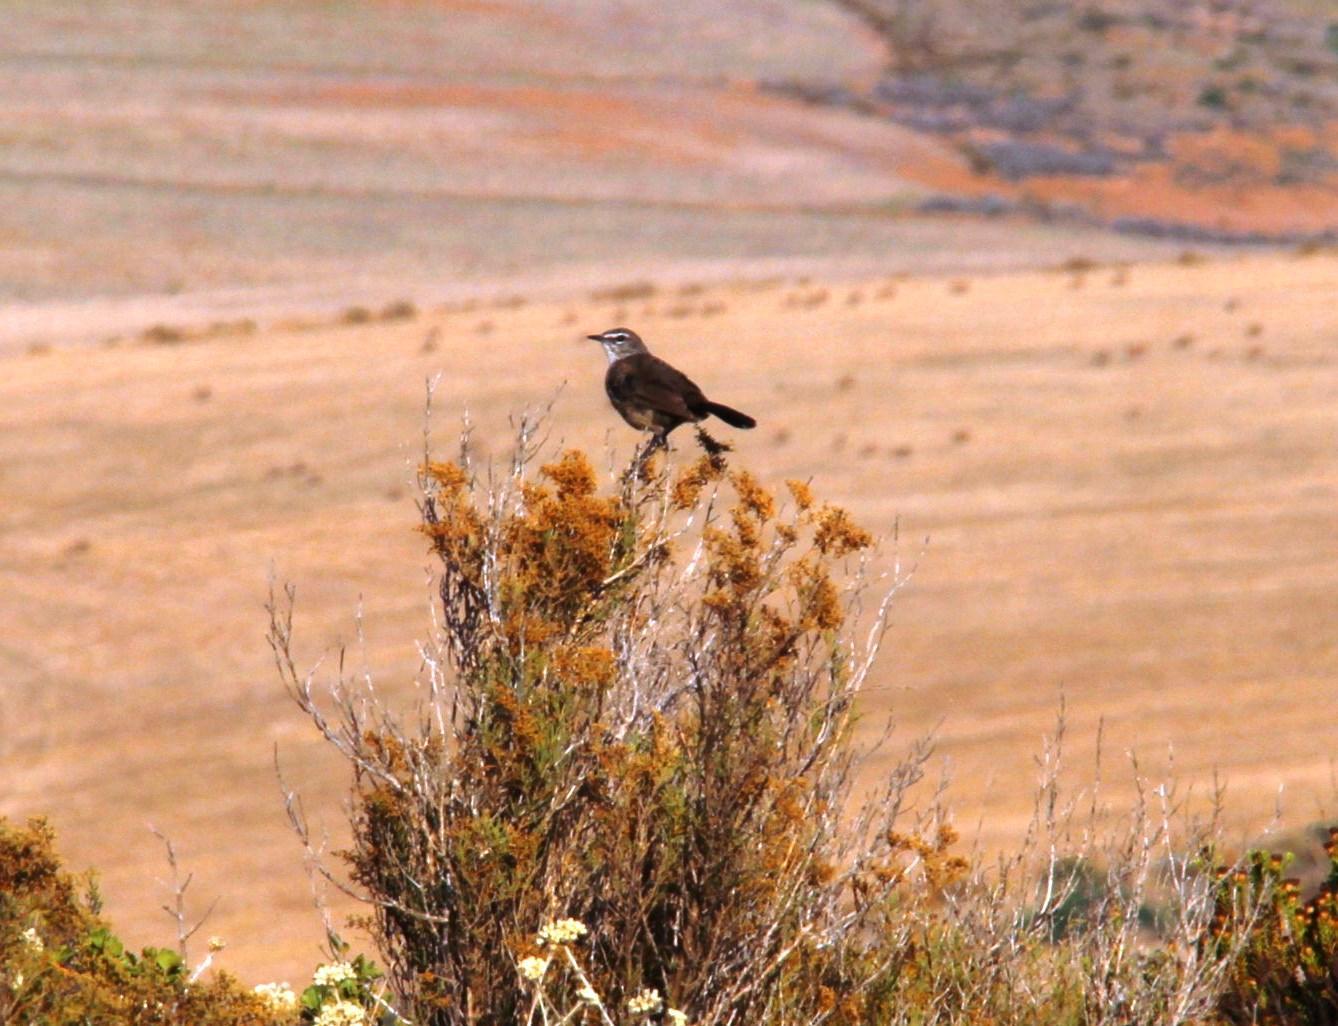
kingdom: Animalia
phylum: Chordata
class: Aves
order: Passeriformes
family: Muscicapidae
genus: Erythropygia
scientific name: Erythropygia coryphoeus
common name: Karoo scrub robin
